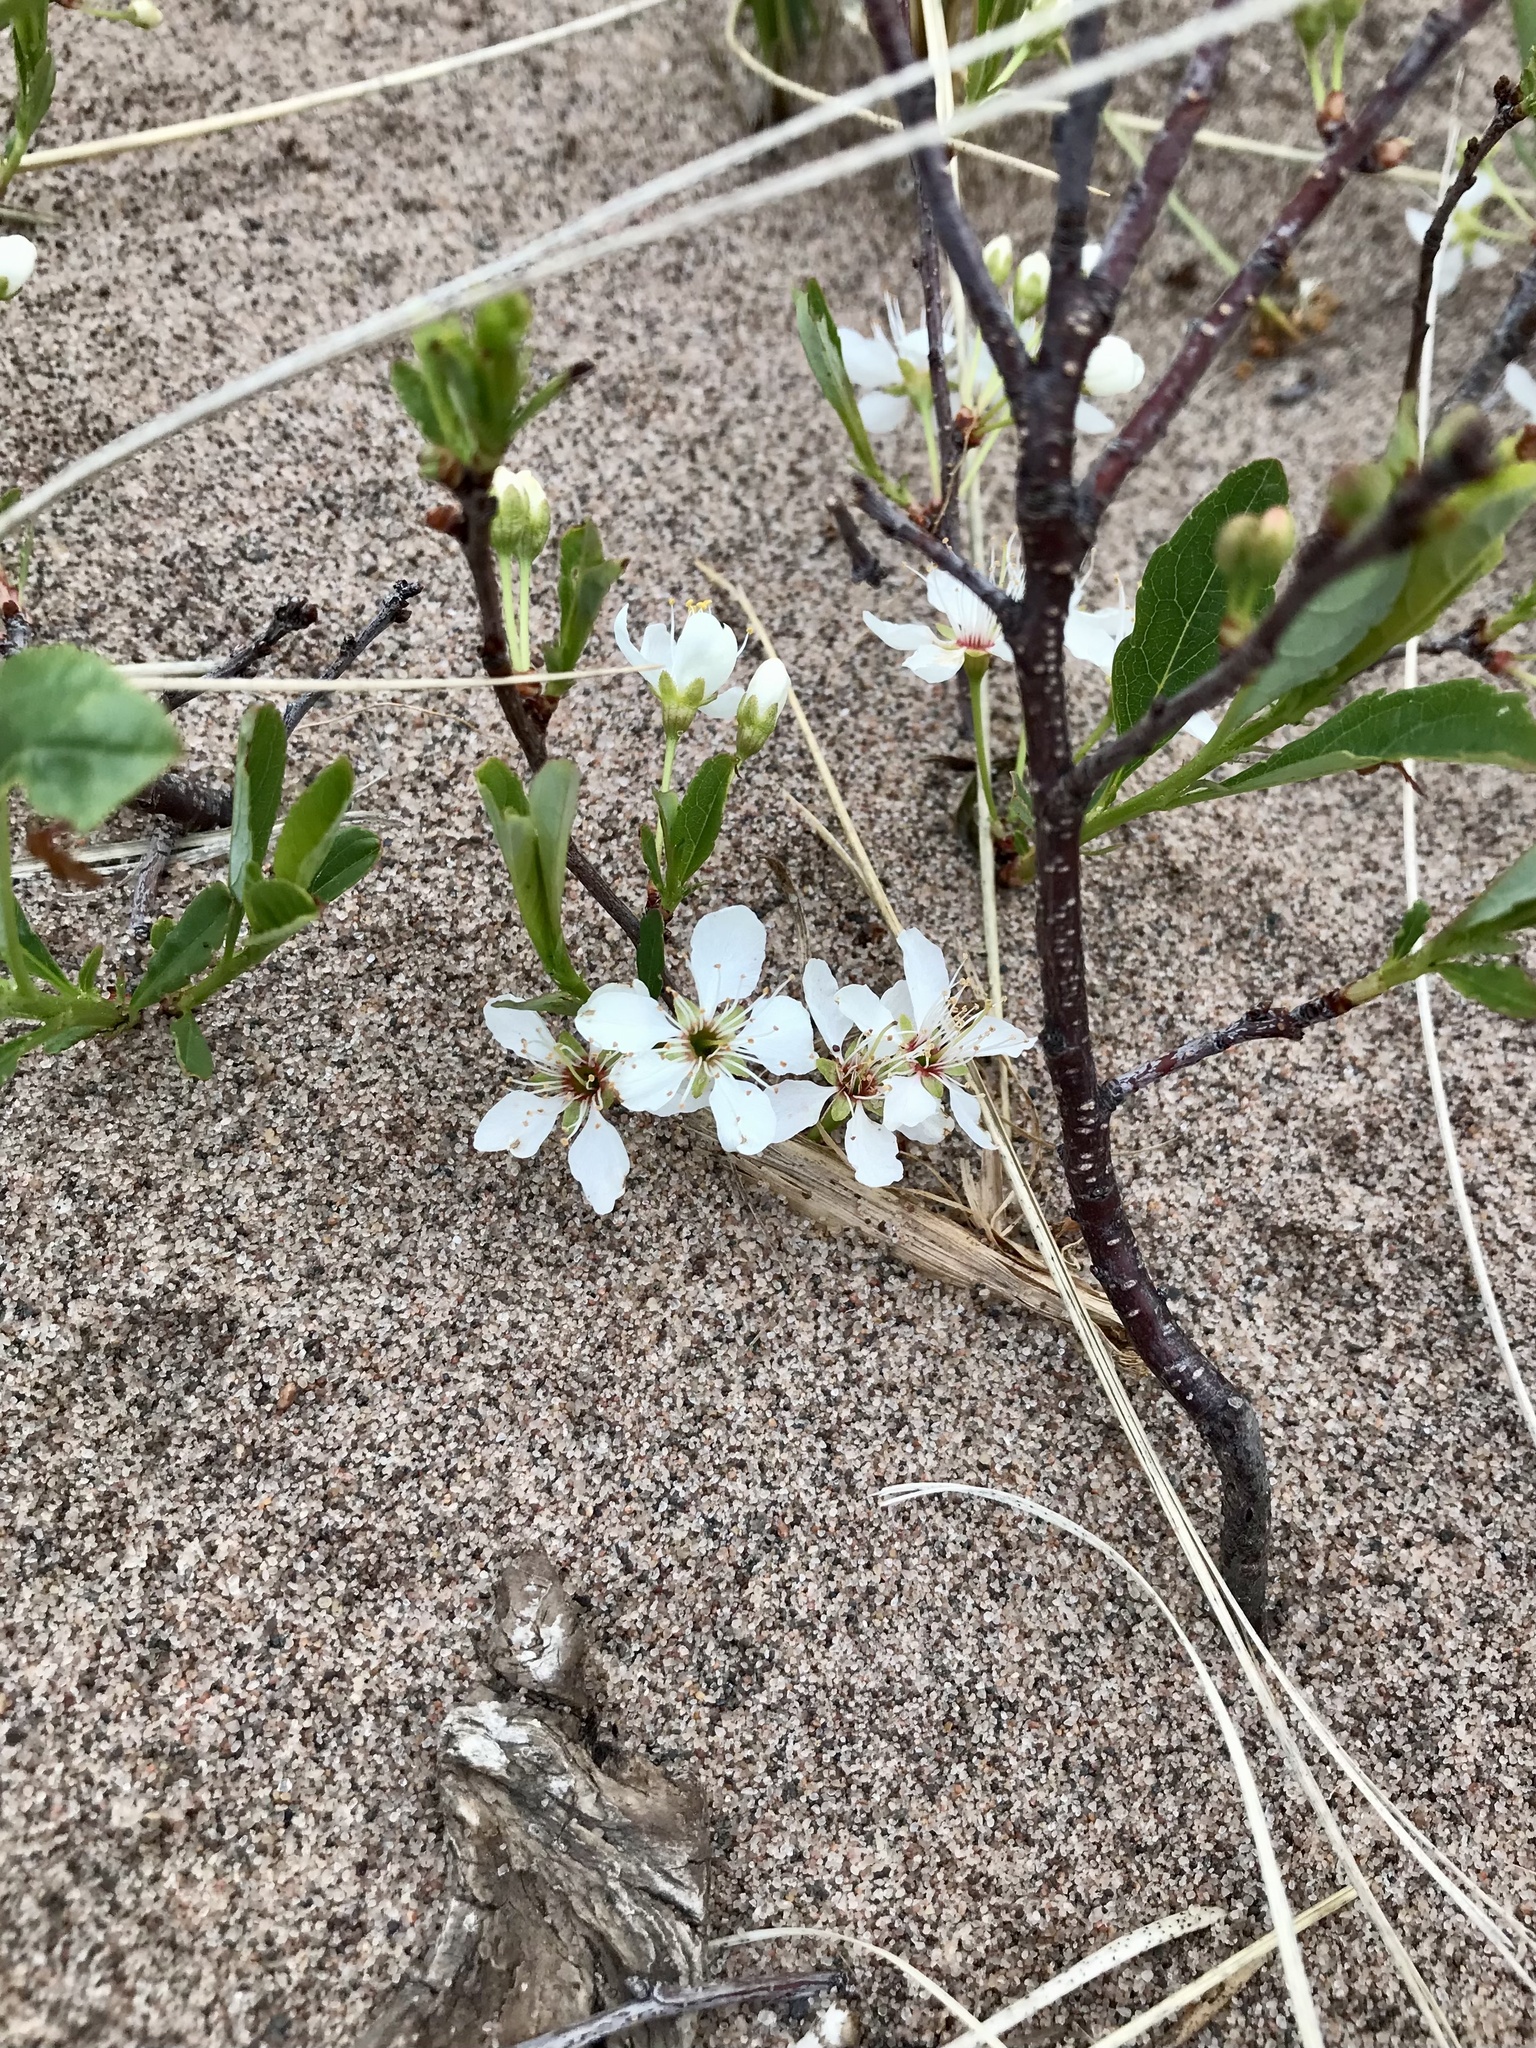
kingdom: Plantae
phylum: Tracheophyta
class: Magnoliopsida
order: Rosales
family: Rosaceae
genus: Prunus
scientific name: Prunus pumila
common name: Dwarf cherry
